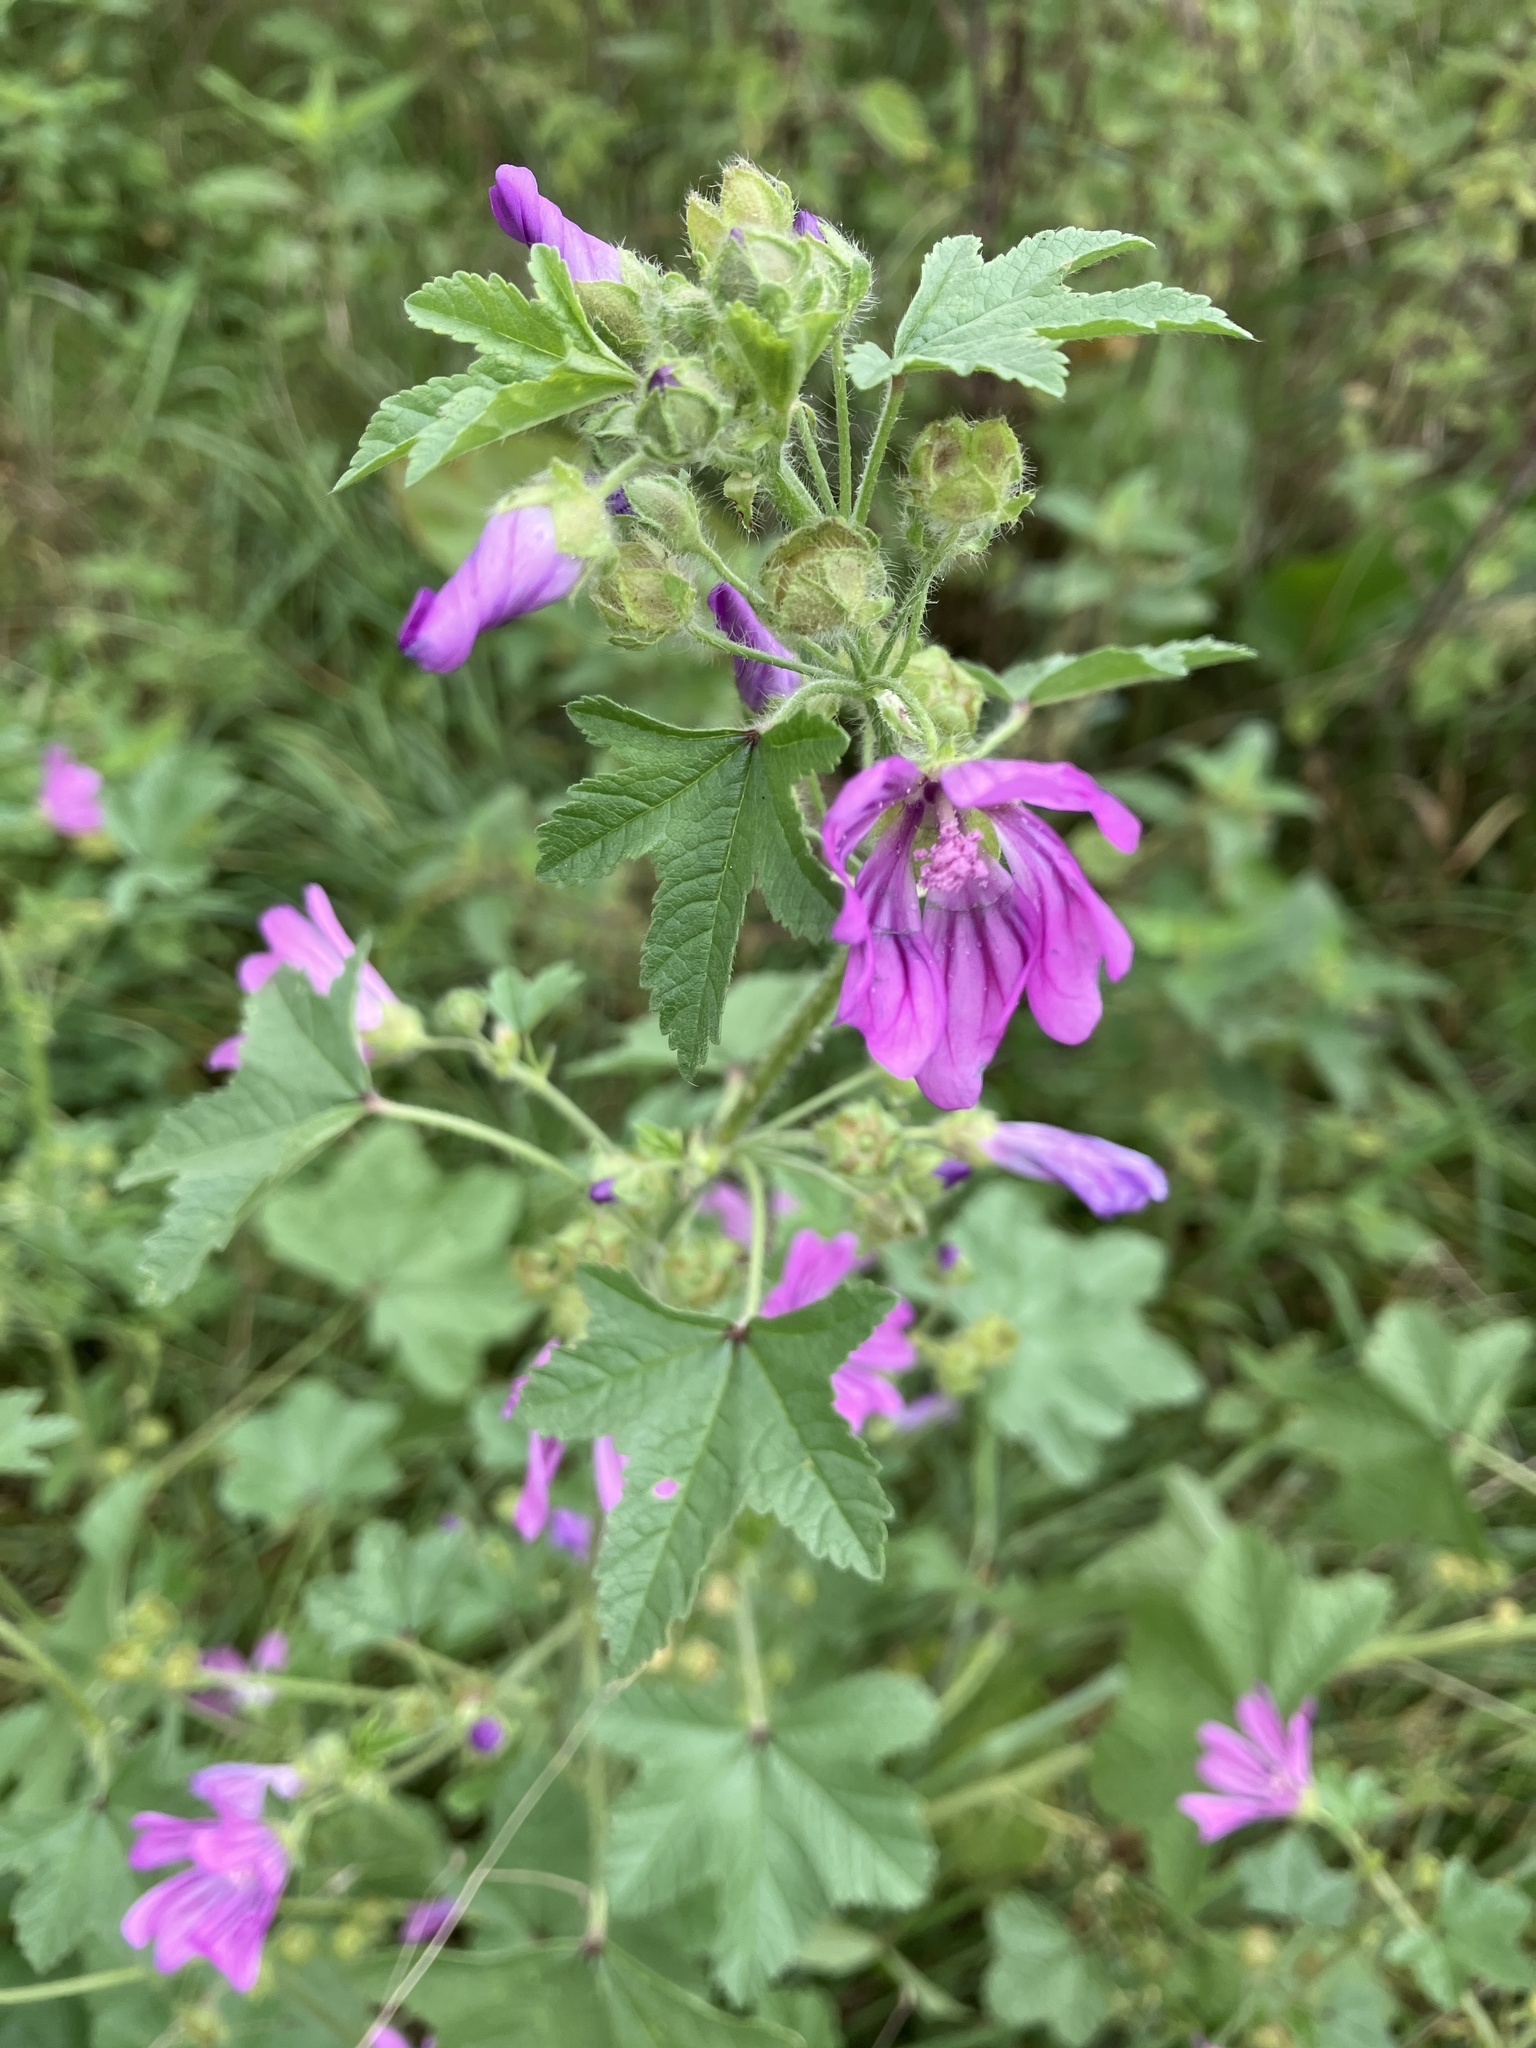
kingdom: Plantae
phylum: Tracheophyta
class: Magnoliopsida
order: Malvales
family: Malvaceae
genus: Malva
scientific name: Malva sylvestris
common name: Common mallow
